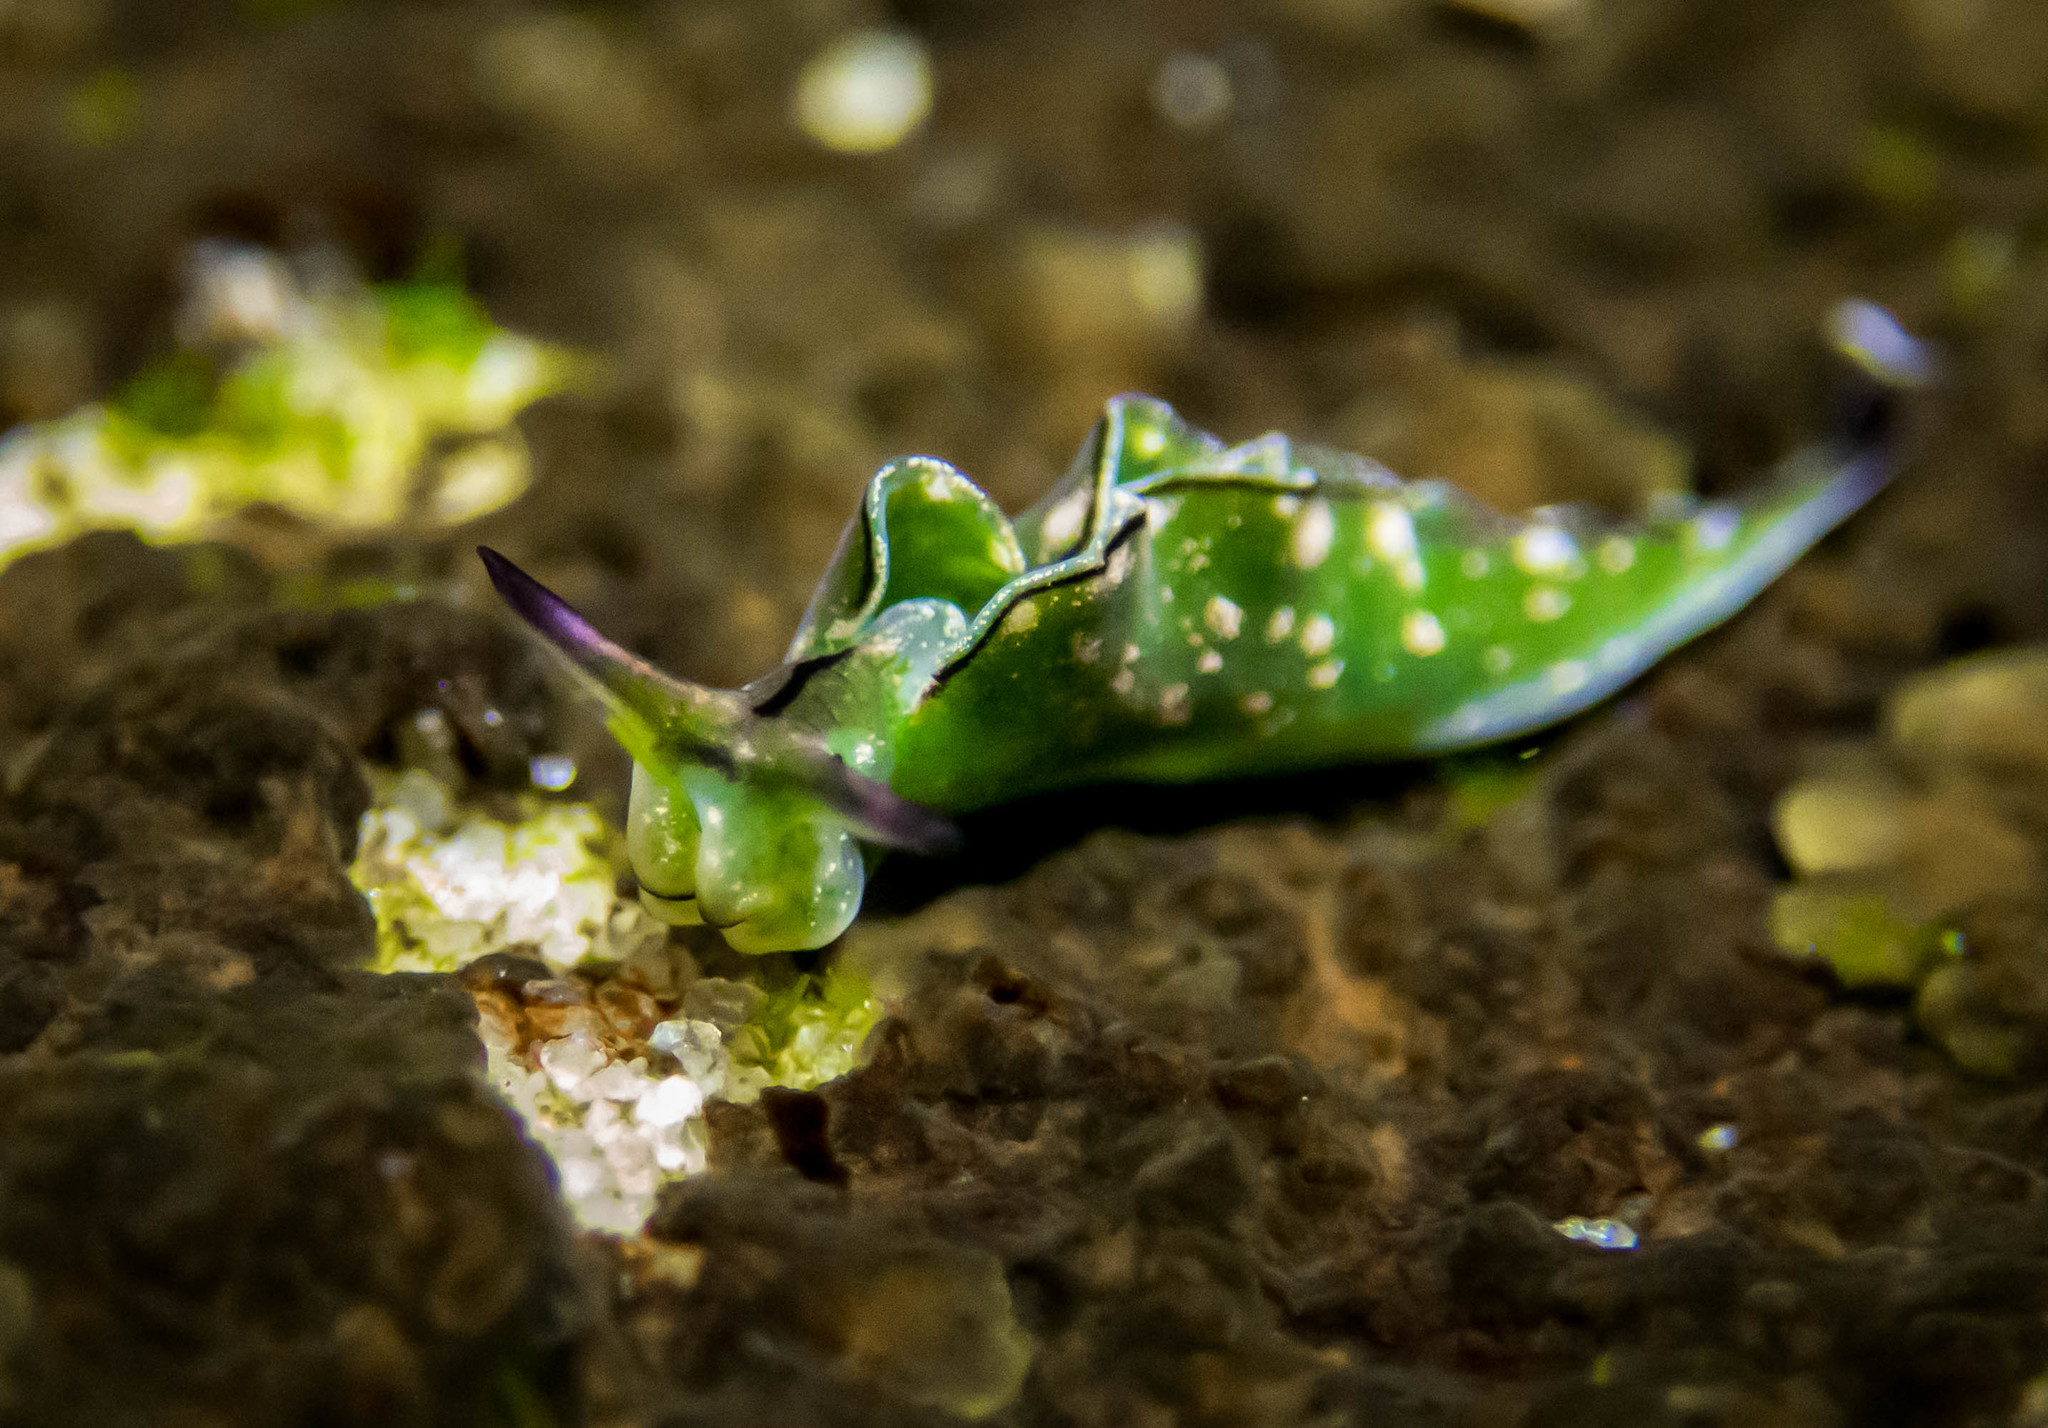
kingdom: Animalia
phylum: Mollusca
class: Gastropoda
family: Plakobranchidae
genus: Elysia
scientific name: Elysia coodgeensis
